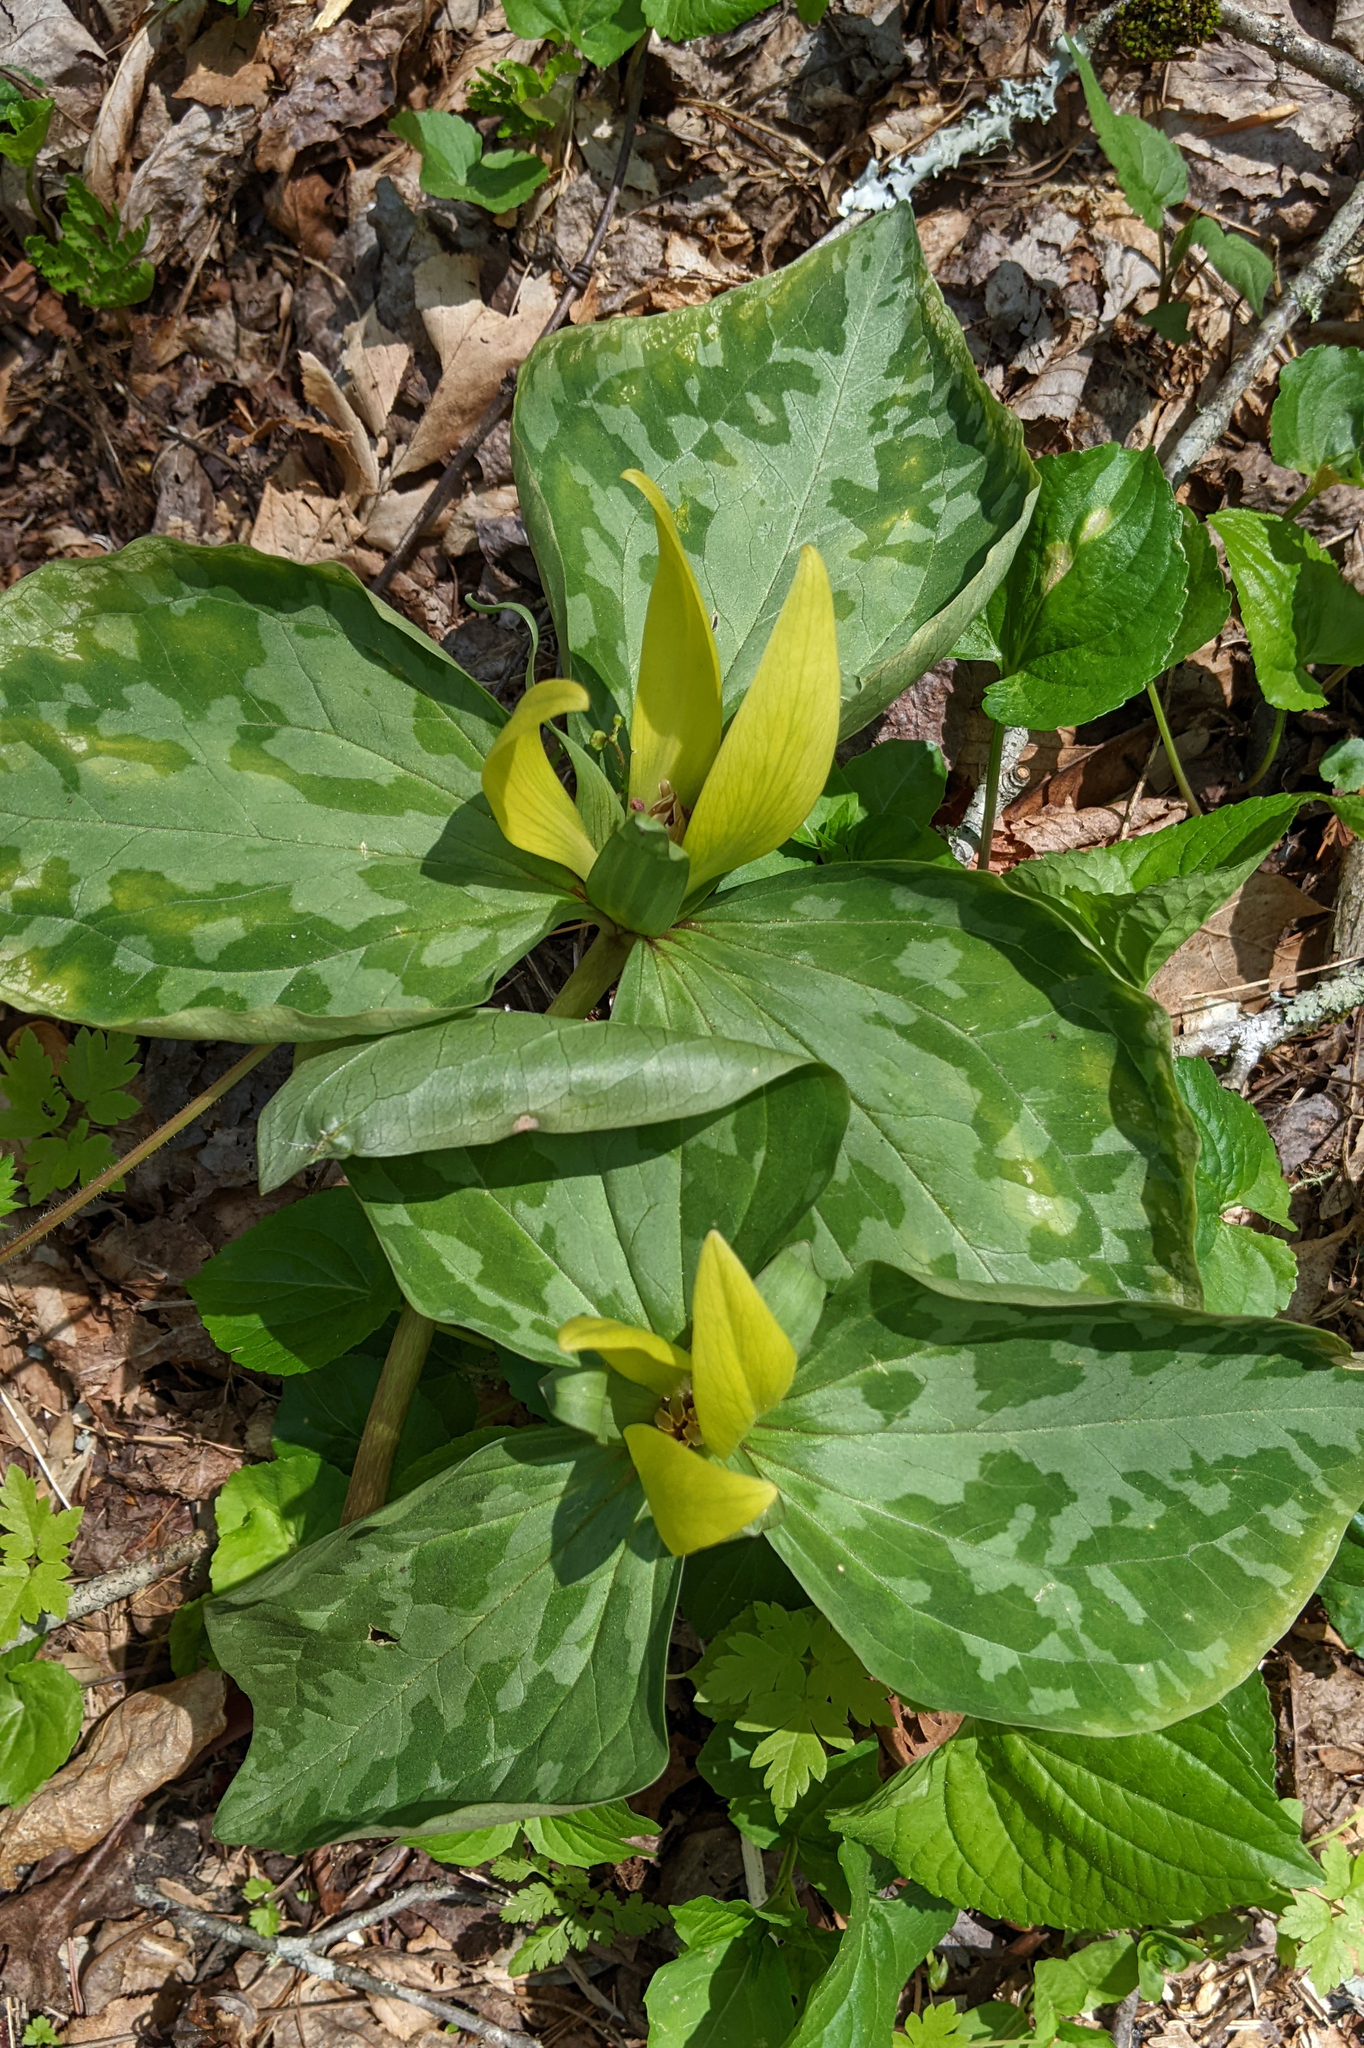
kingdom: Plantae
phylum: Tracheophyta
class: Liliopsida
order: Liliales
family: Melanthiaceae
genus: Trillium
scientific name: Trillium cuneatum
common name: Cuneate trillium
